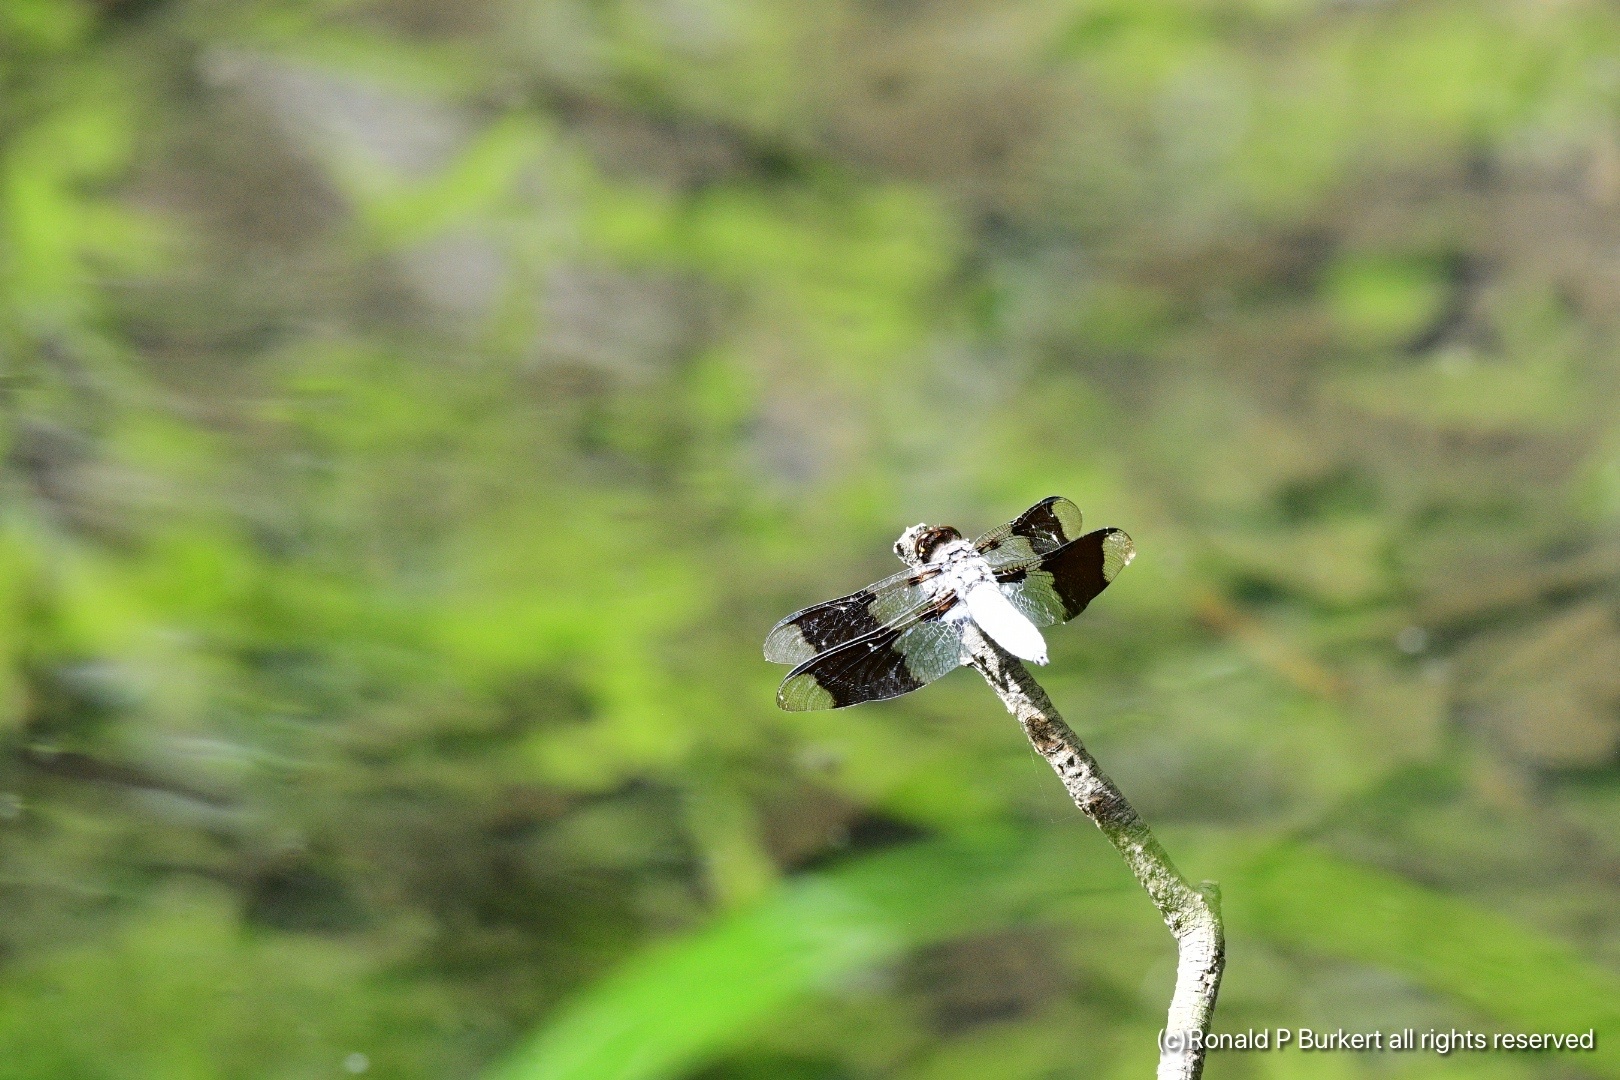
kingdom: Animalia
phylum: Arthropoda
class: Insecta
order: Odonata
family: Libellulidae
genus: Plathemis
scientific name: Plathemis lydia
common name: Common whitetail
